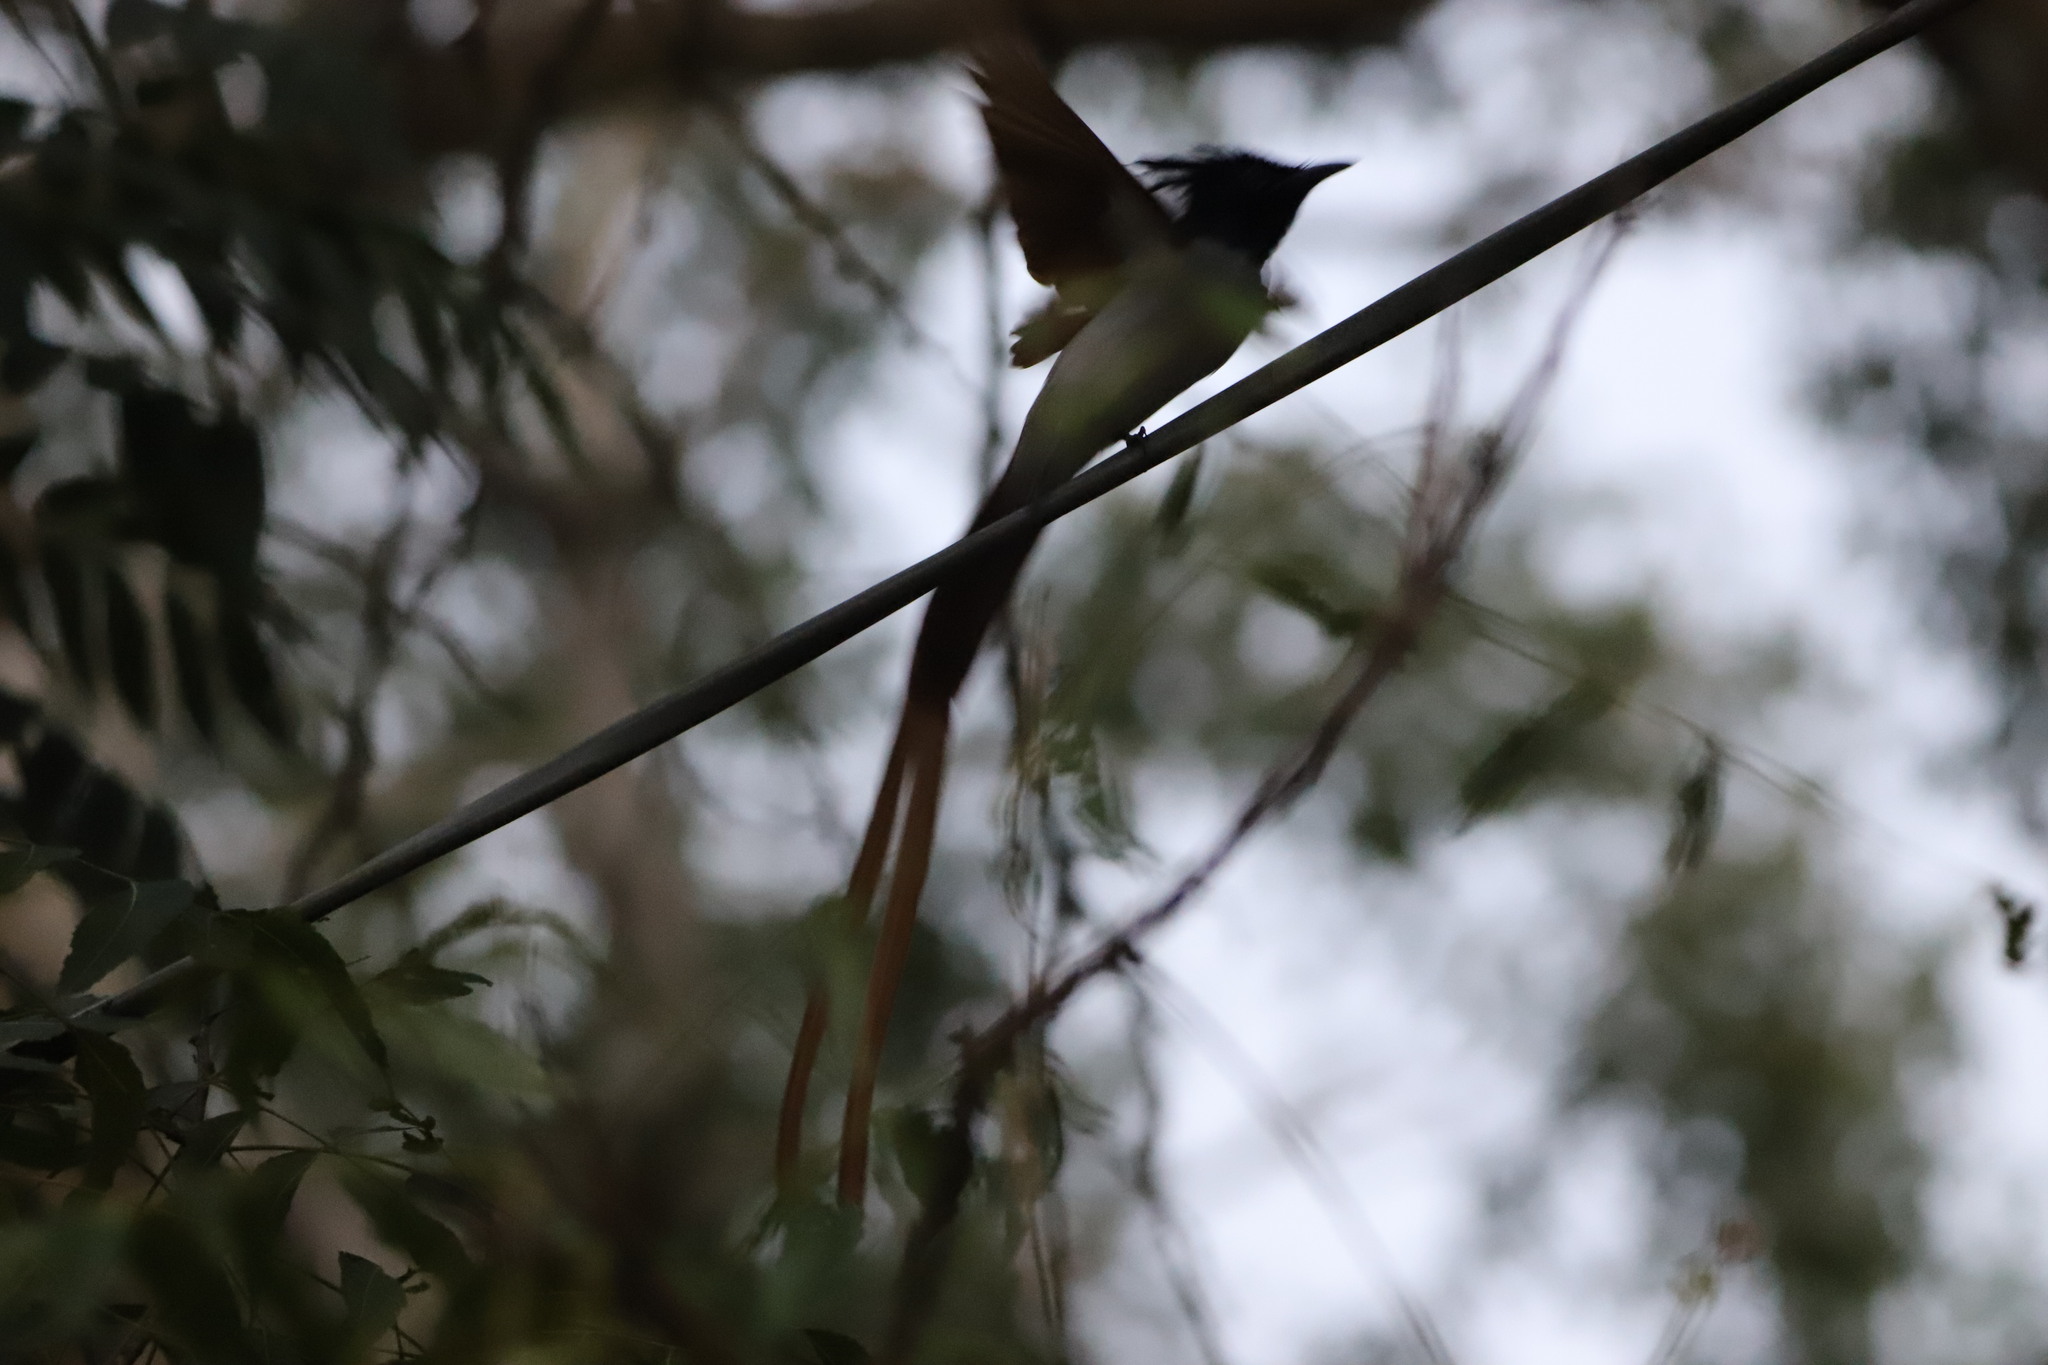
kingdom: Animalia
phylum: Chordata
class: Aves
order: Passeriformes
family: Monarchidae
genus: Terpsiphone
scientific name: Terpsiphone paradisi
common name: Indian paradise flycatcher
